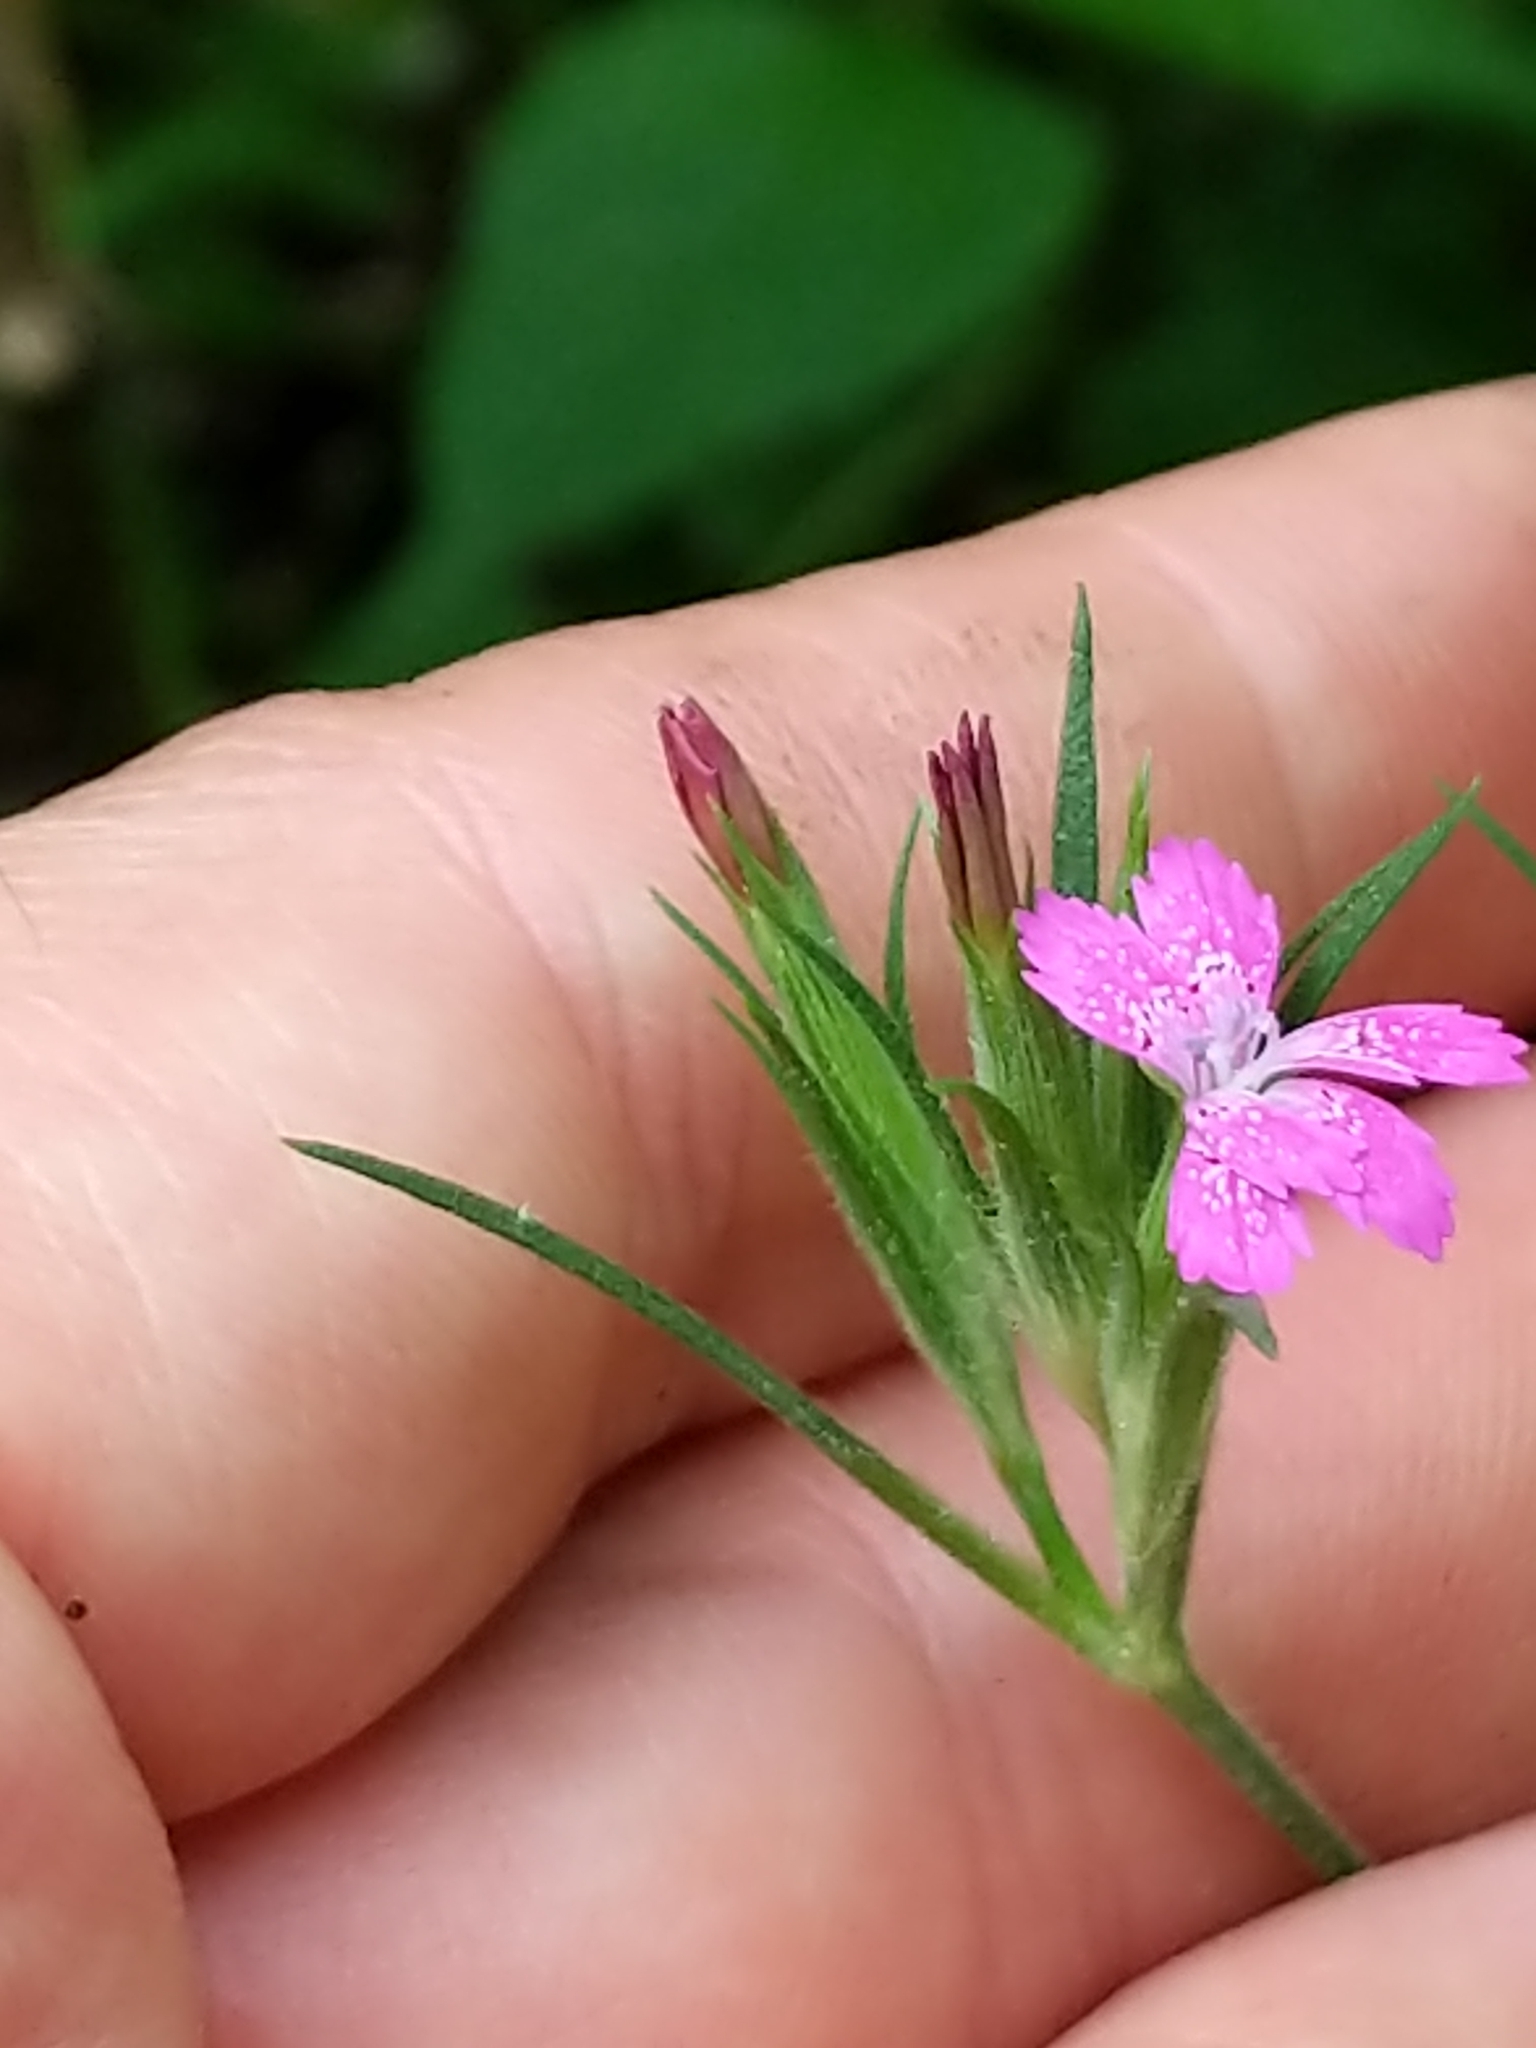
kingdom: Plantae
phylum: Tracheophyta
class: Magnoliopsida
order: Caryophyllales
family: Caryophyllaceae
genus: Dianthus
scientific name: Dianthus armeria
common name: Deptford pink
